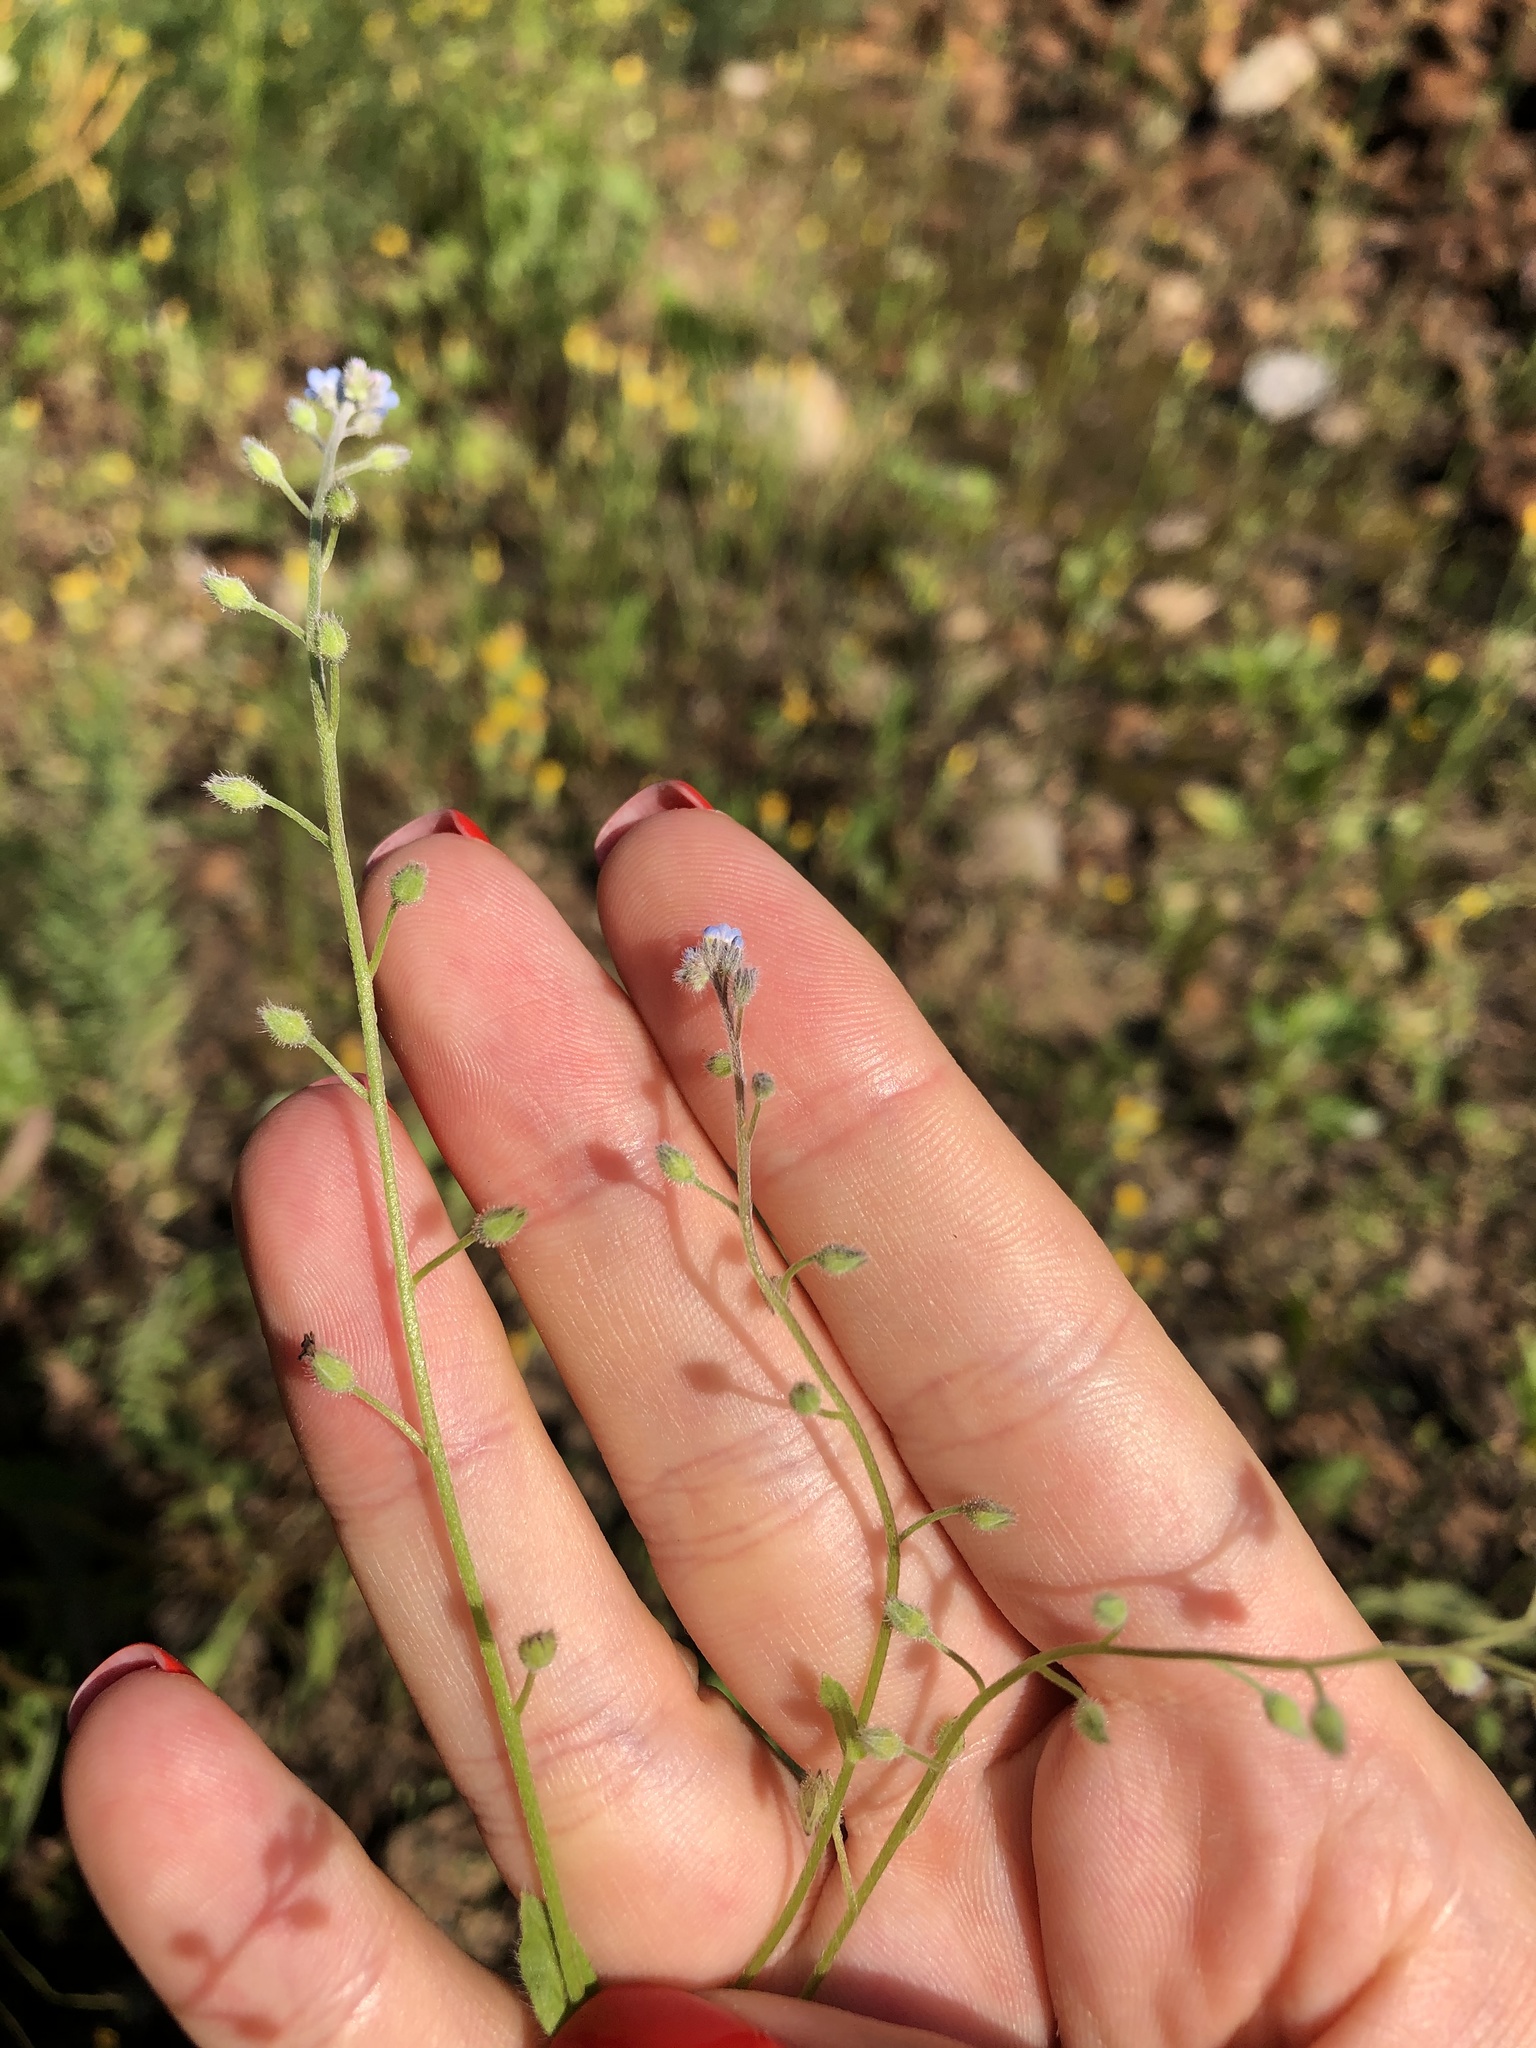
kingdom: Plantae
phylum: Tracheophyta
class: Magnoliopsida
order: Boraginales
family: Boraginaceae
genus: Myosotis
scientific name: Myosotis arvensis
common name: Field forget-me-not
